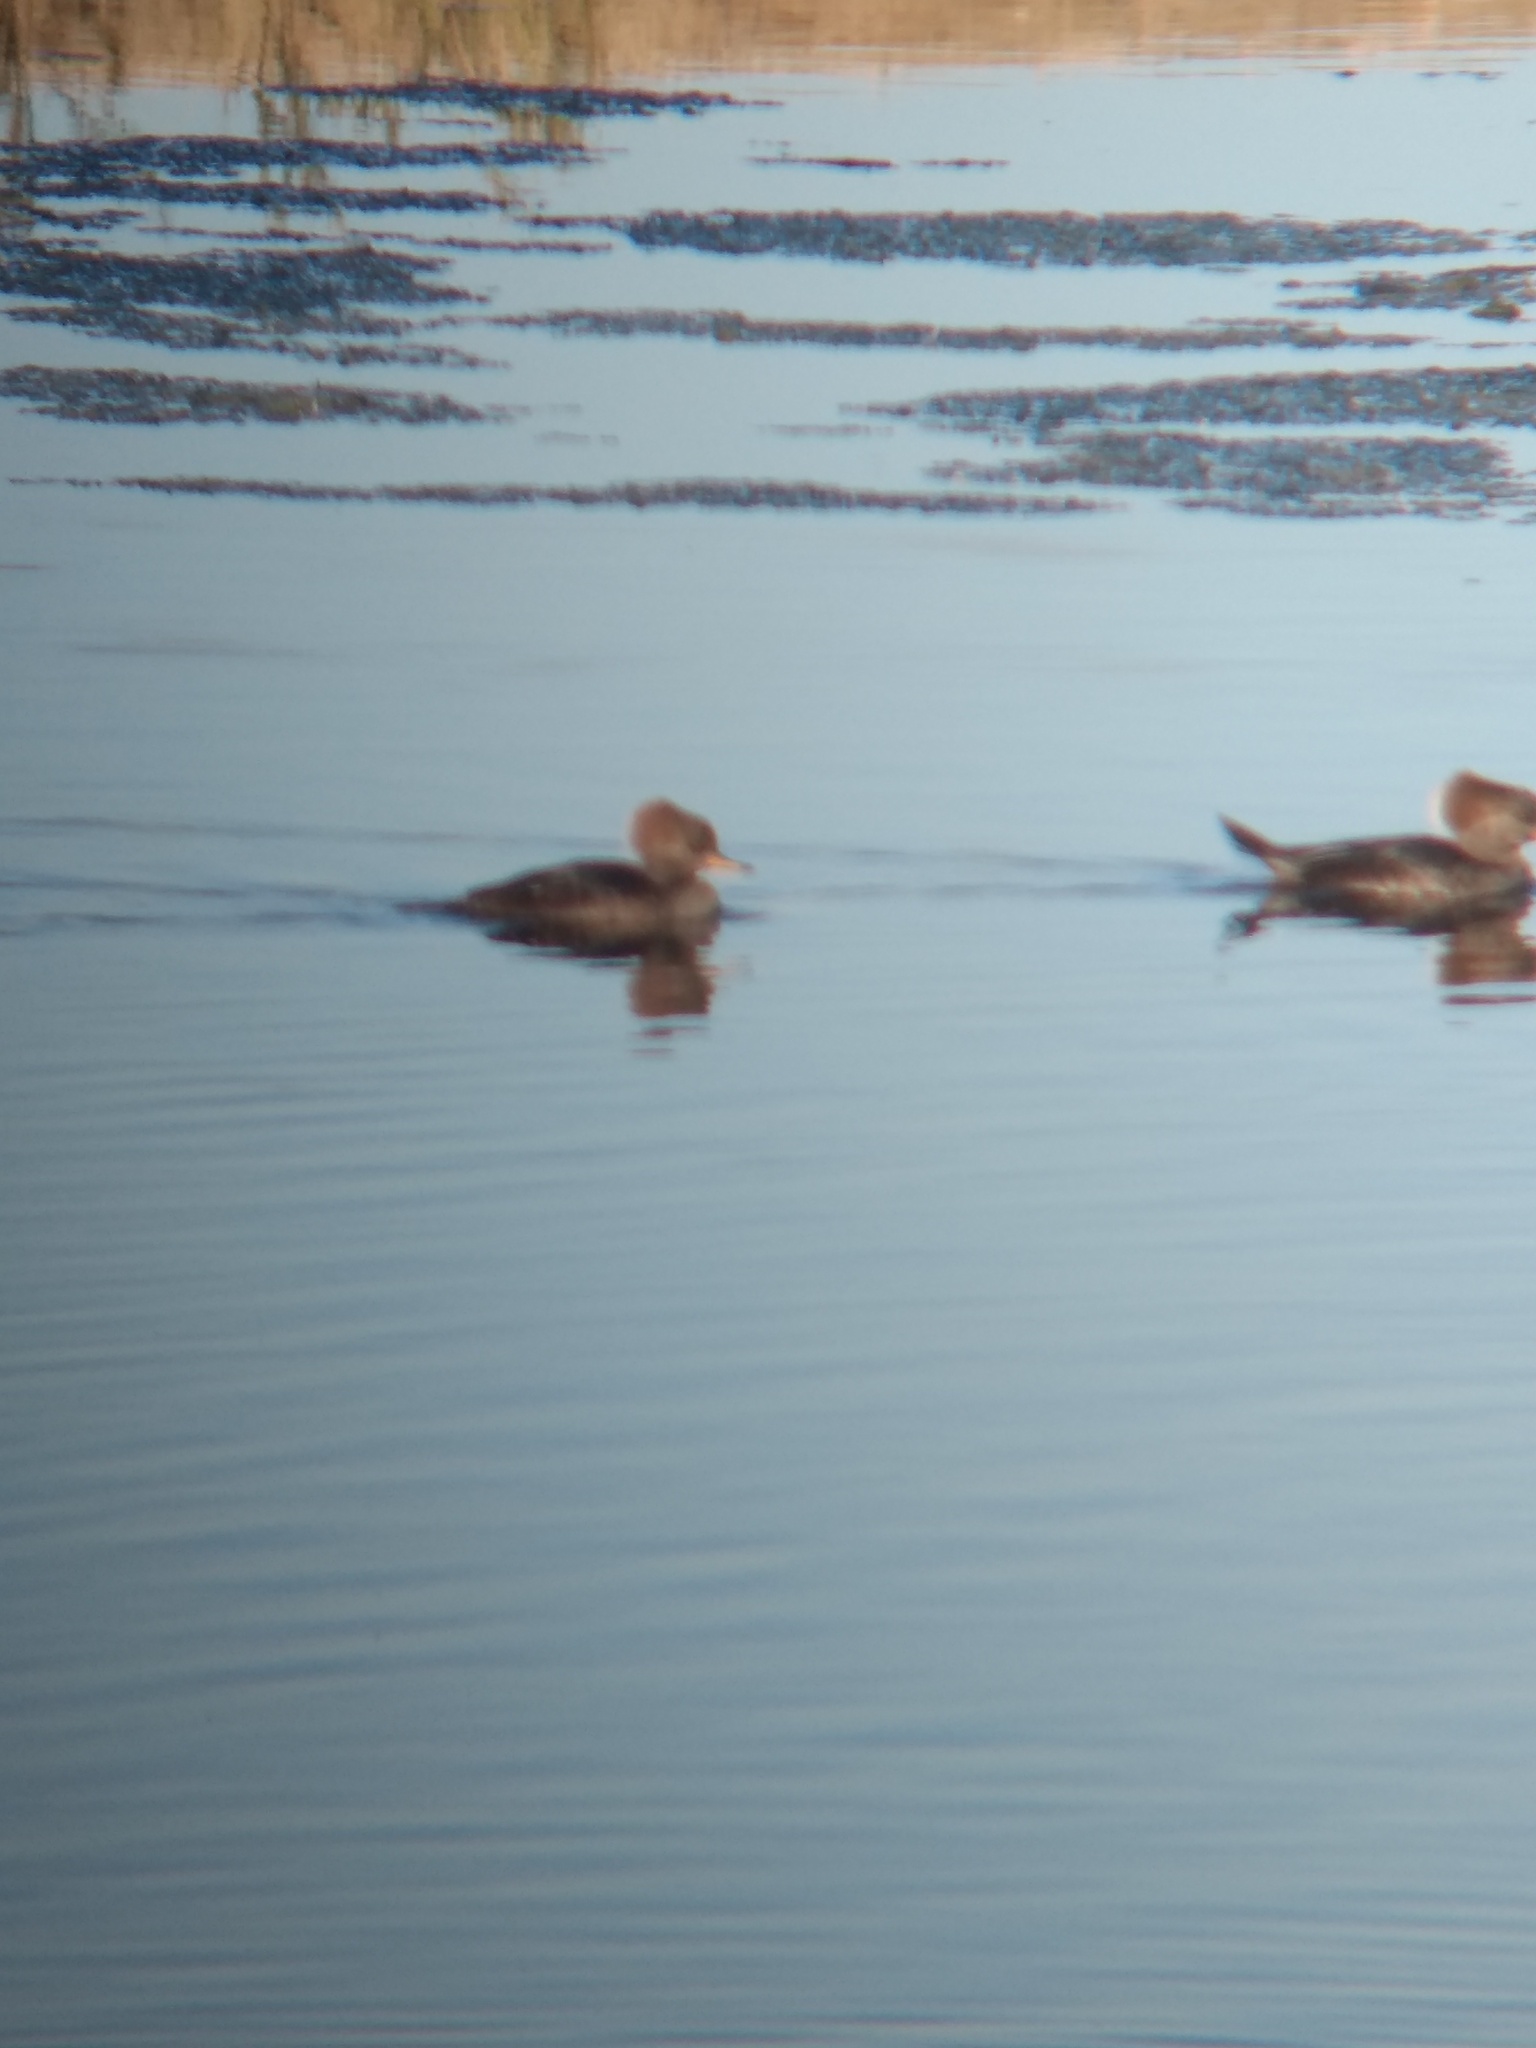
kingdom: Animalia
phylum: Chordata
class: Aves
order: Anseriformes
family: Anatidae
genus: Lophodytes
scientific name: Lophodytes cucullatus
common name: Hooded merganser
